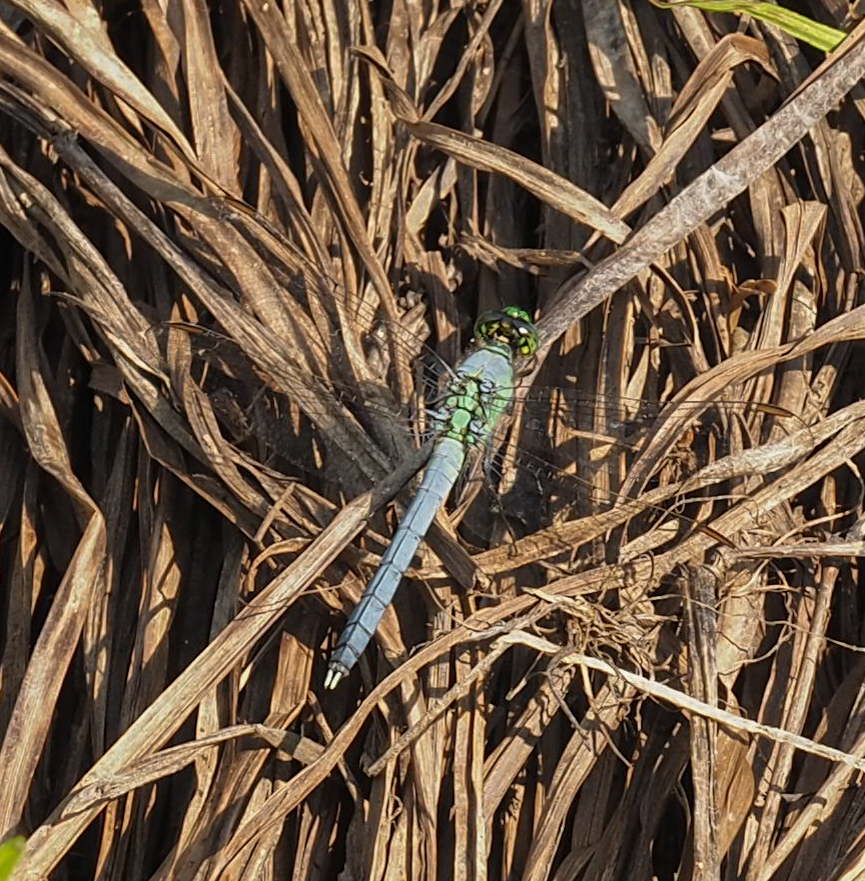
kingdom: Animalia
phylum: Arthropoda
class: Insecta
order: Odonata
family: Libellulidae
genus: Erythemis
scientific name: Erythemis simplicicollis
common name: Eastern pondhawk
